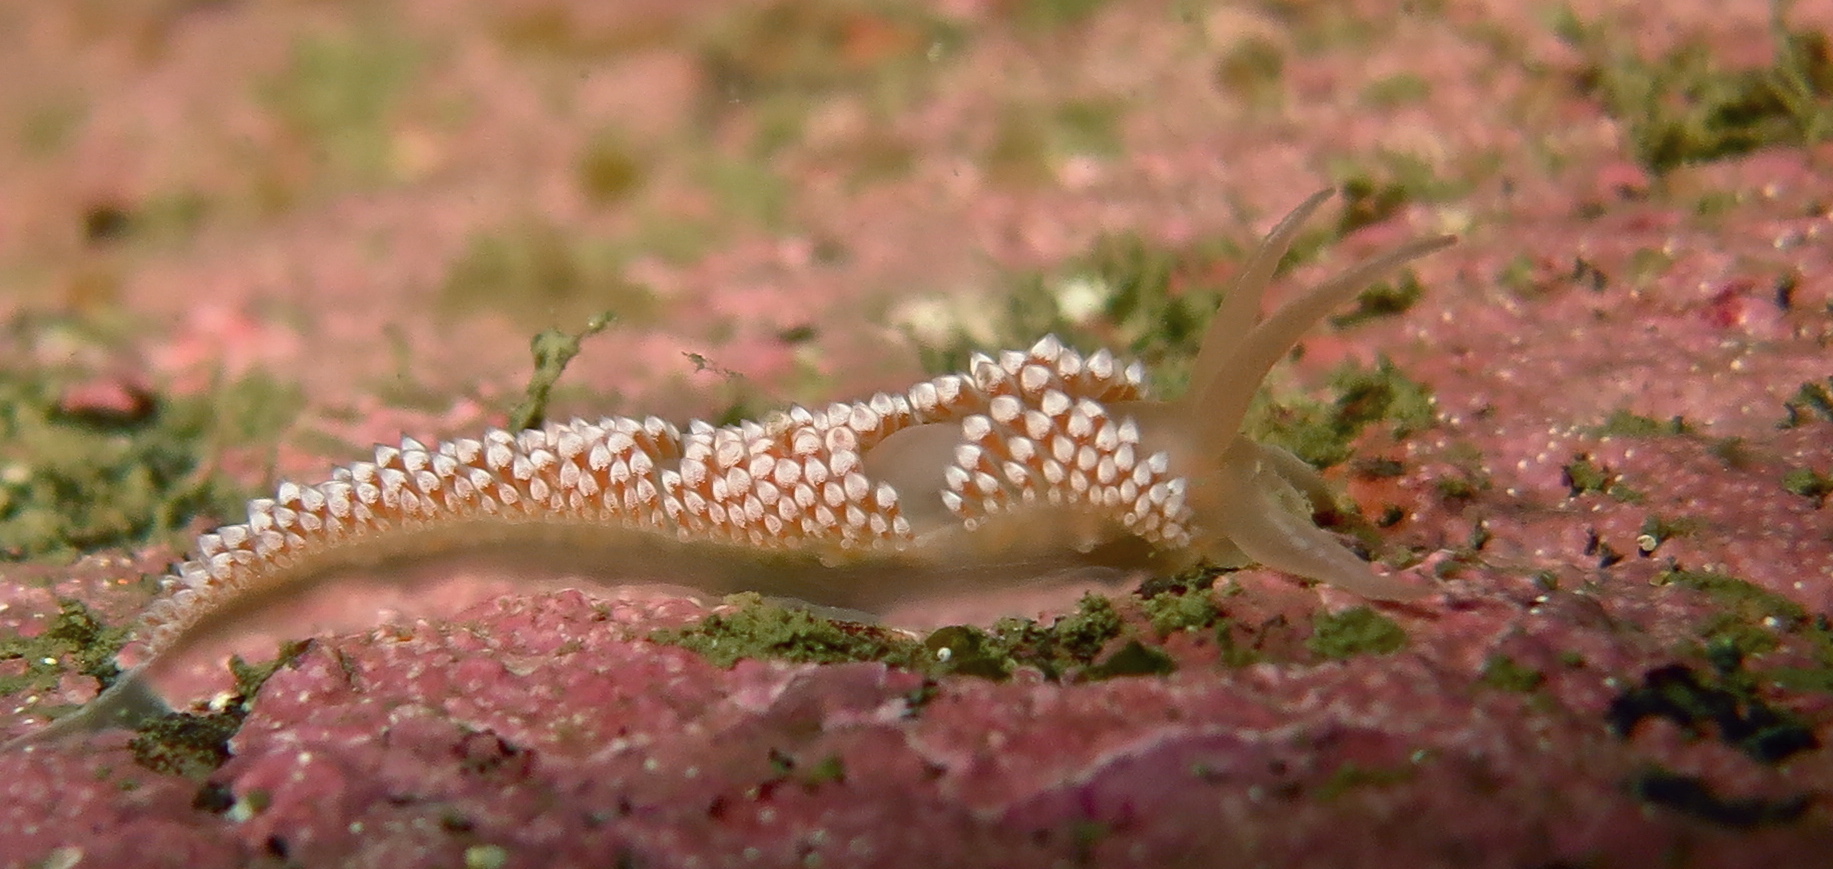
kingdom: Animalia
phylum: Mollusca
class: Gastropoda
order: Nudibranchia
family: Coryphellidae
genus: Coryphella
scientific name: Coryphella verrucosa
